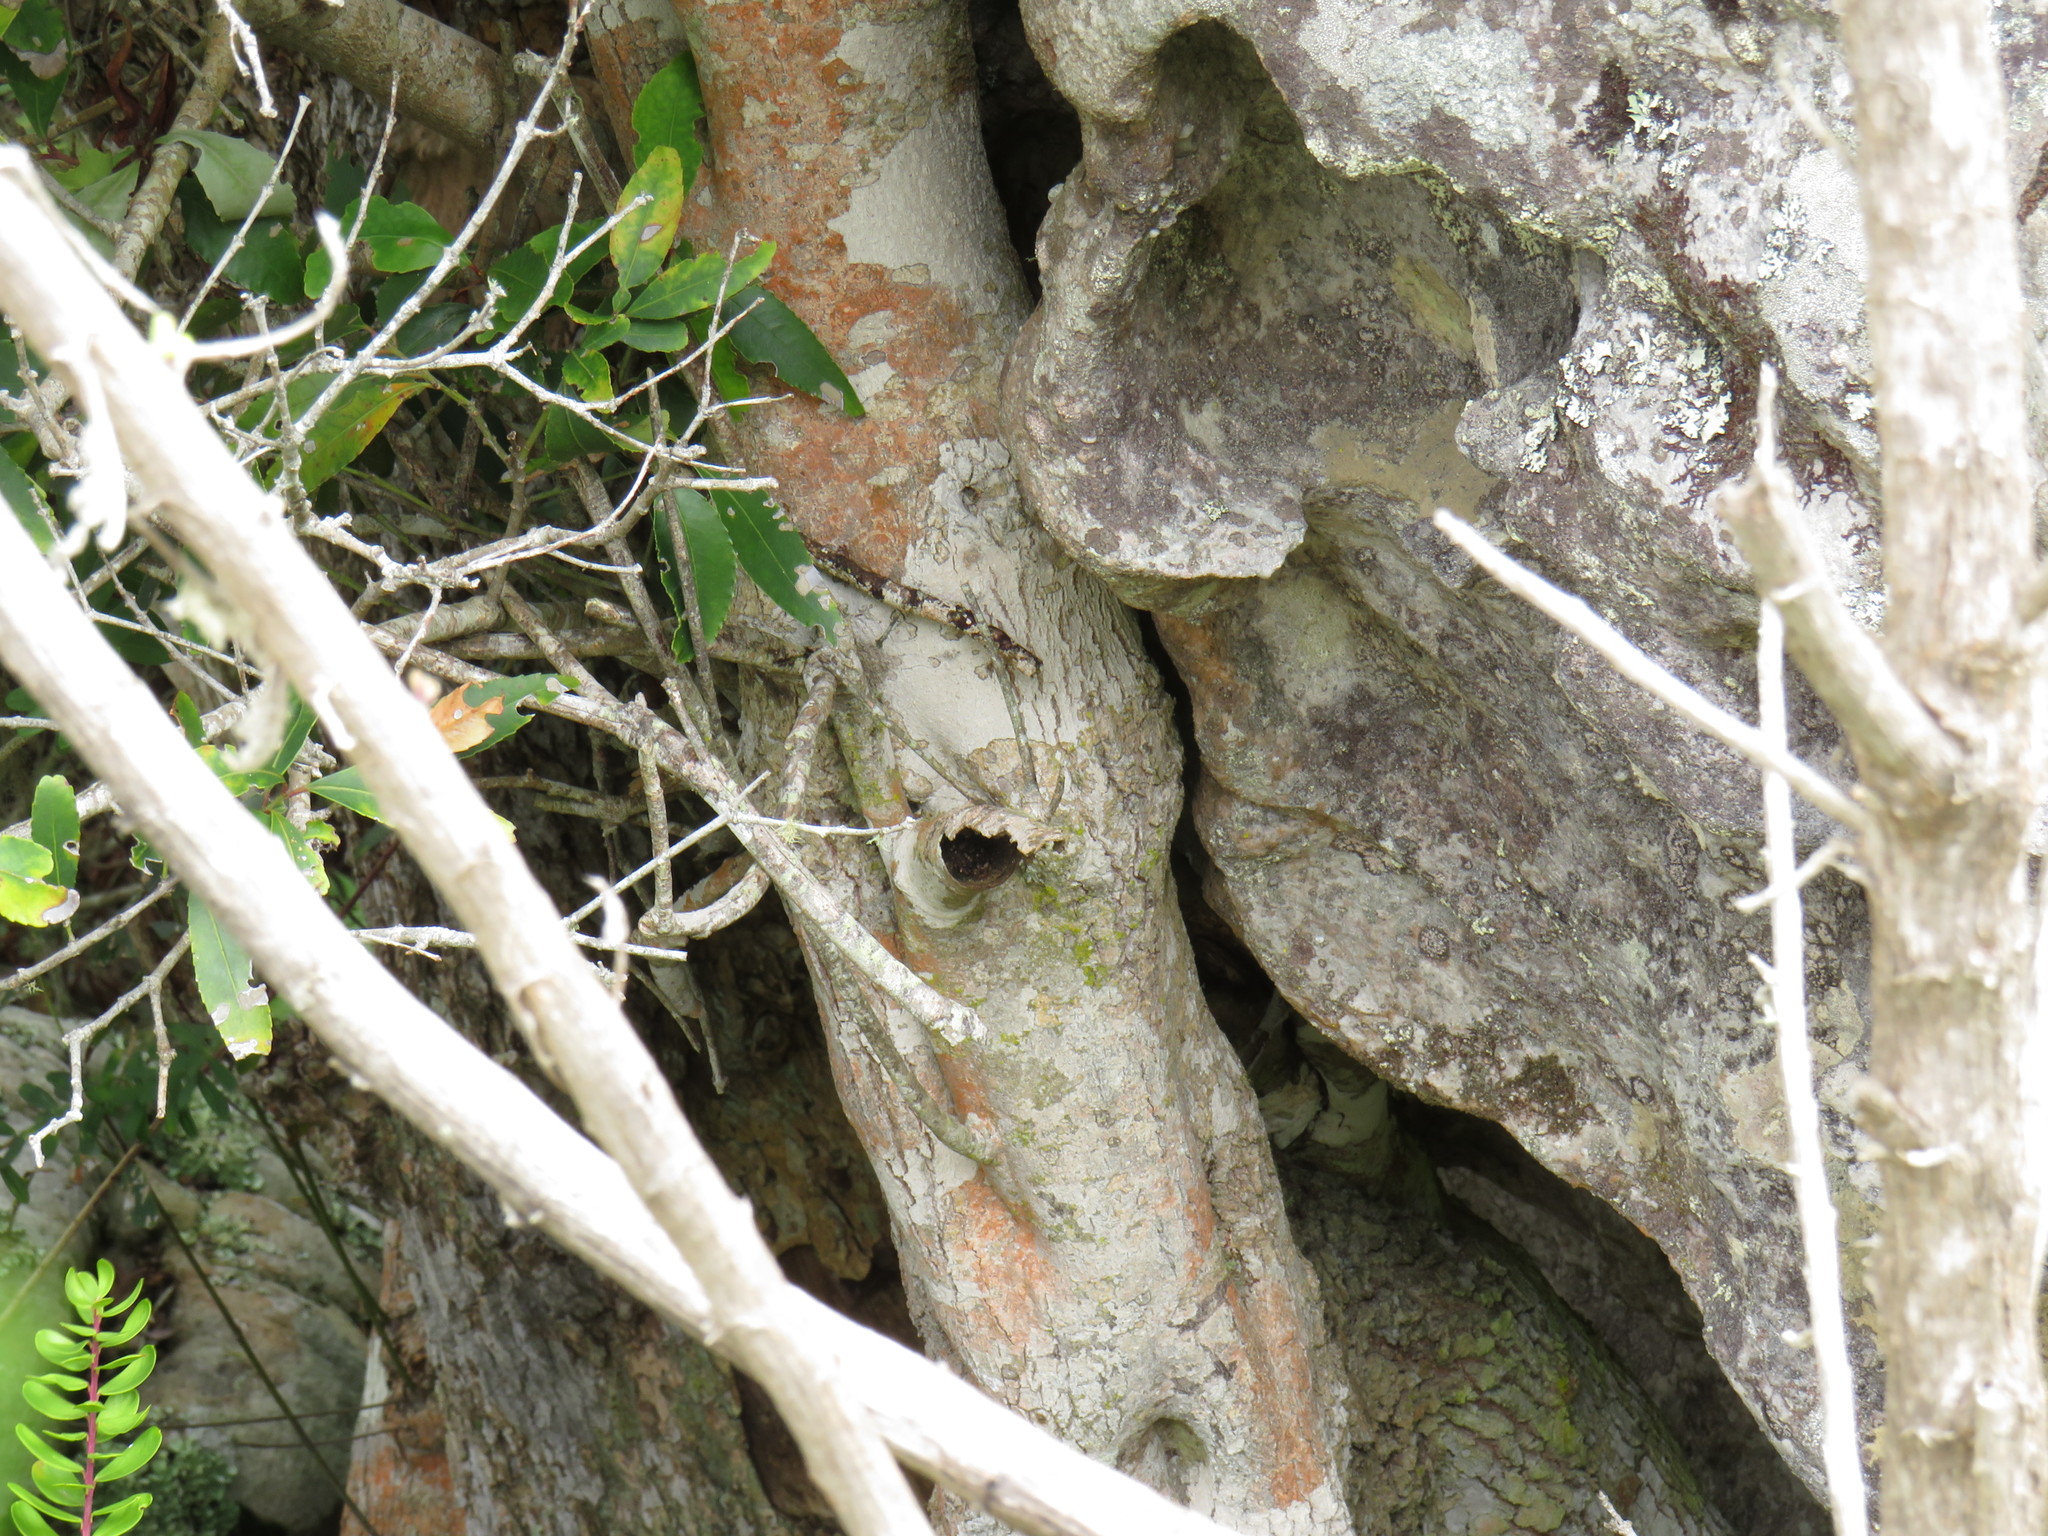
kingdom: Plantae
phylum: Tracheophyta
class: Magnoliopsida
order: Celastrales
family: Celastraceae
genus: Elaeodendron
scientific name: Elaeodendron schinoides
